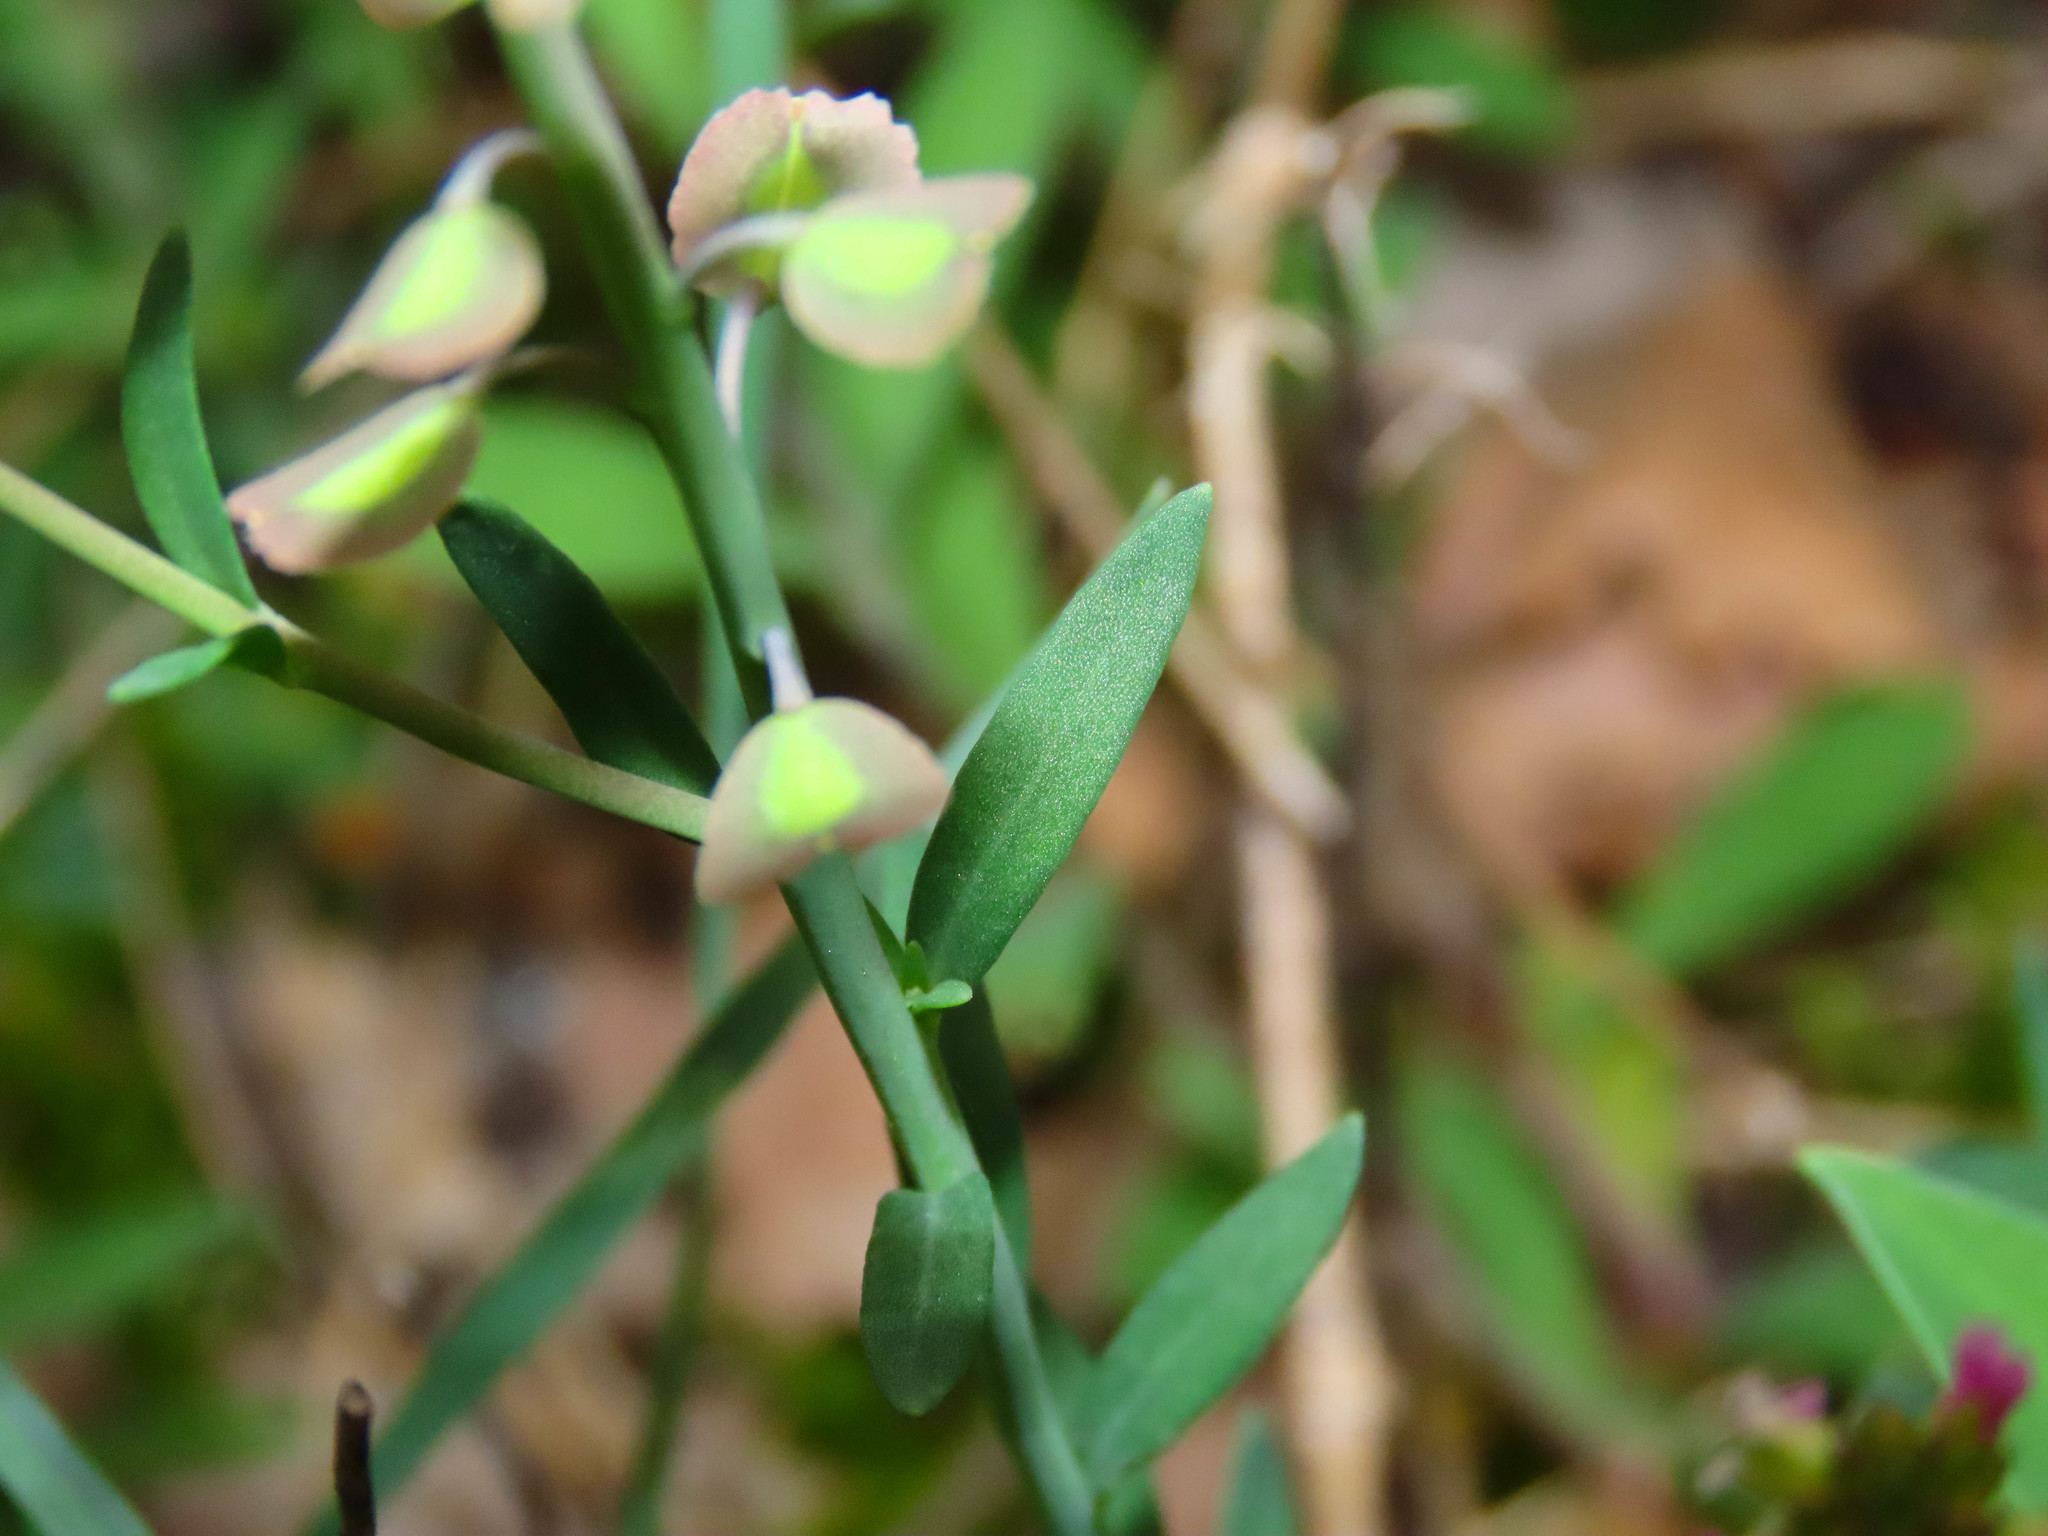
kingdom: Plantae
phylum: Tracheophyta
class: Magnoliopsida
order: Brassicales
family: Brassicaceae
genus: Aethionema
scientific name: Aethionema saxatile
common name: Burnt candytuft
